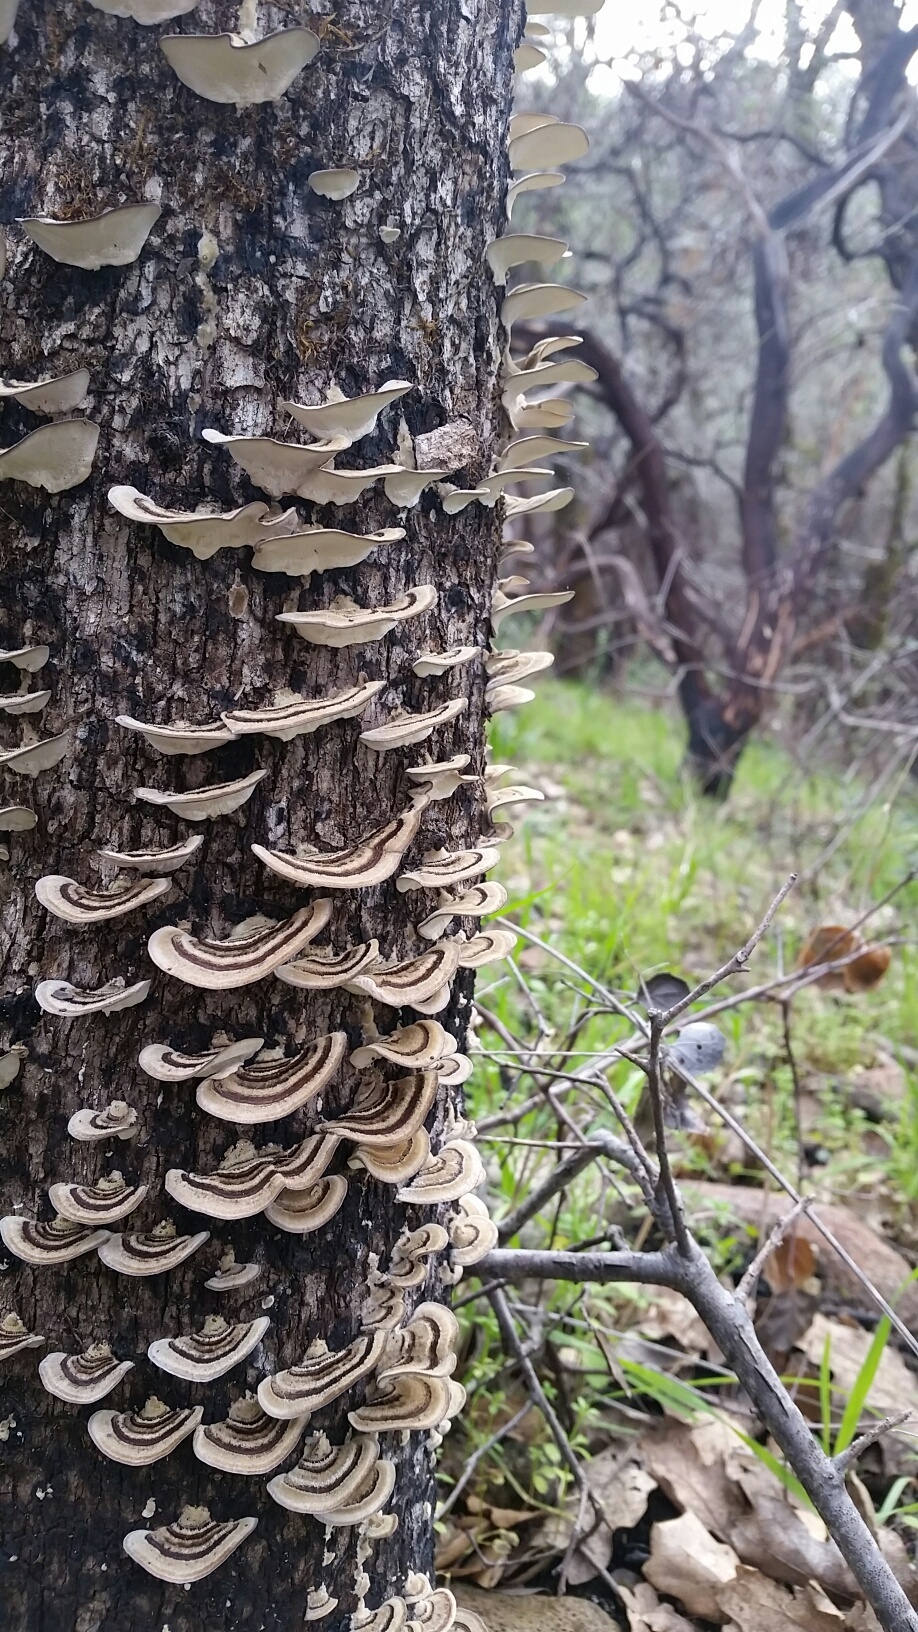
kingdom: Fungi
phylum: Basidiomycota
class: Agaricomycetes
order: Polyporales
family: Polyporaceae
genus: Trametes
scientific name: Trametes versicolor
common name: Turkeytail
